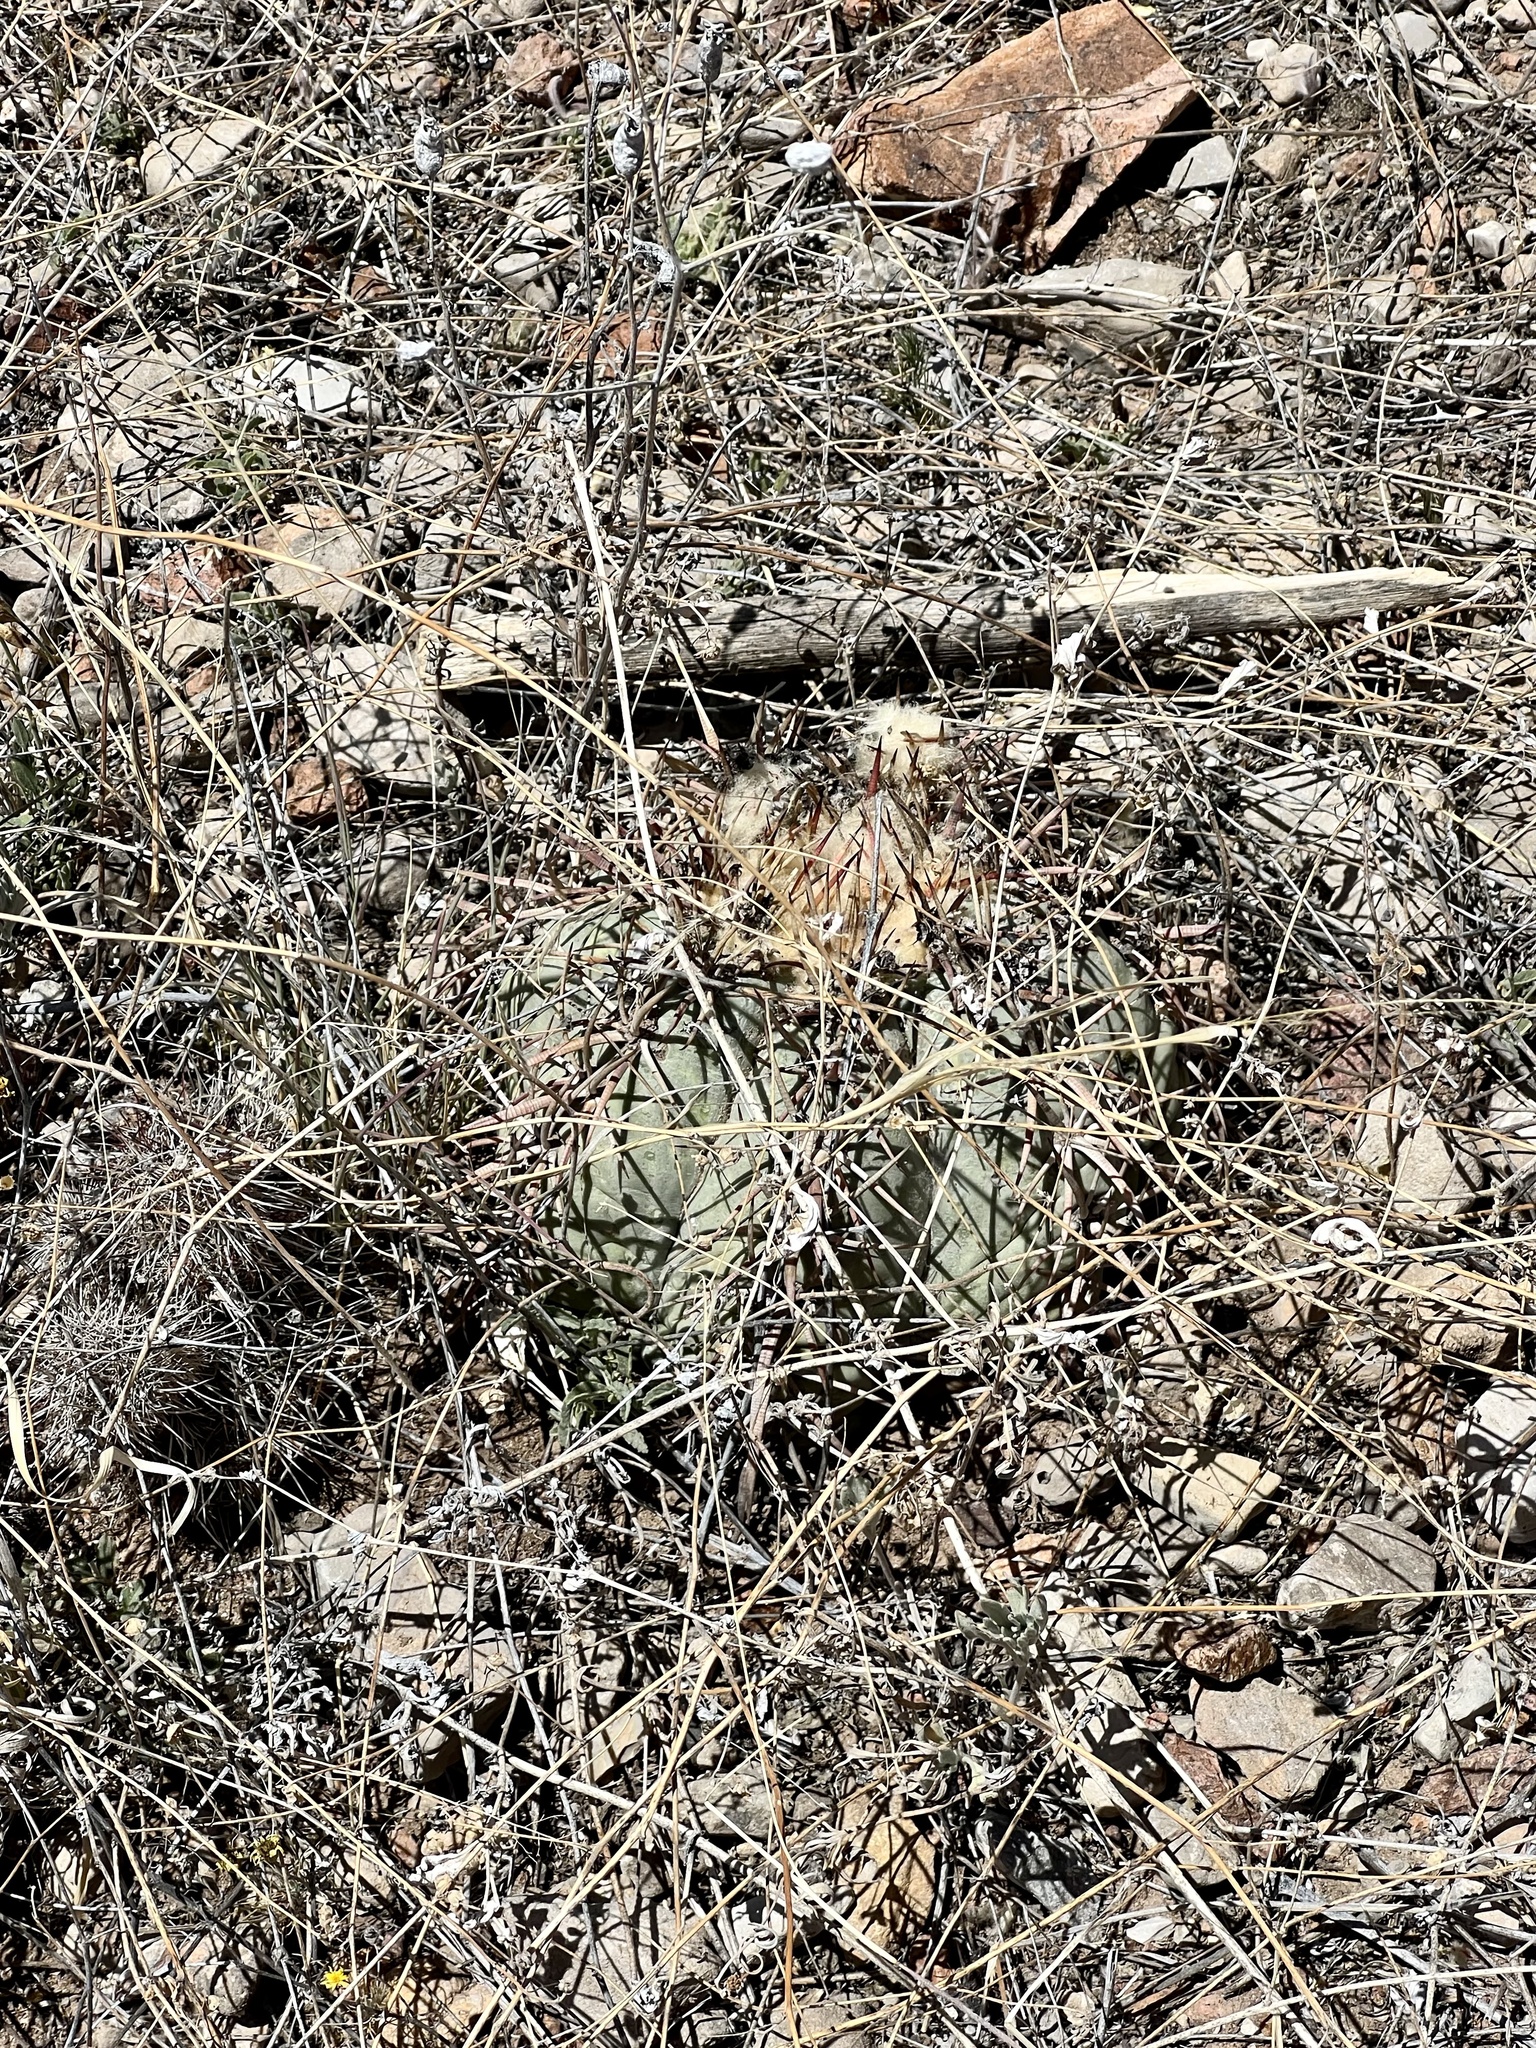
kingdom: Plantae
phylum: Tracheophyta
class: Magnoliopsida
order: Caryophyllales
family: Cactaceae
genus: Echinocactus
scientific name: Echinocactus horizonthalonius
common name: Devilshead
